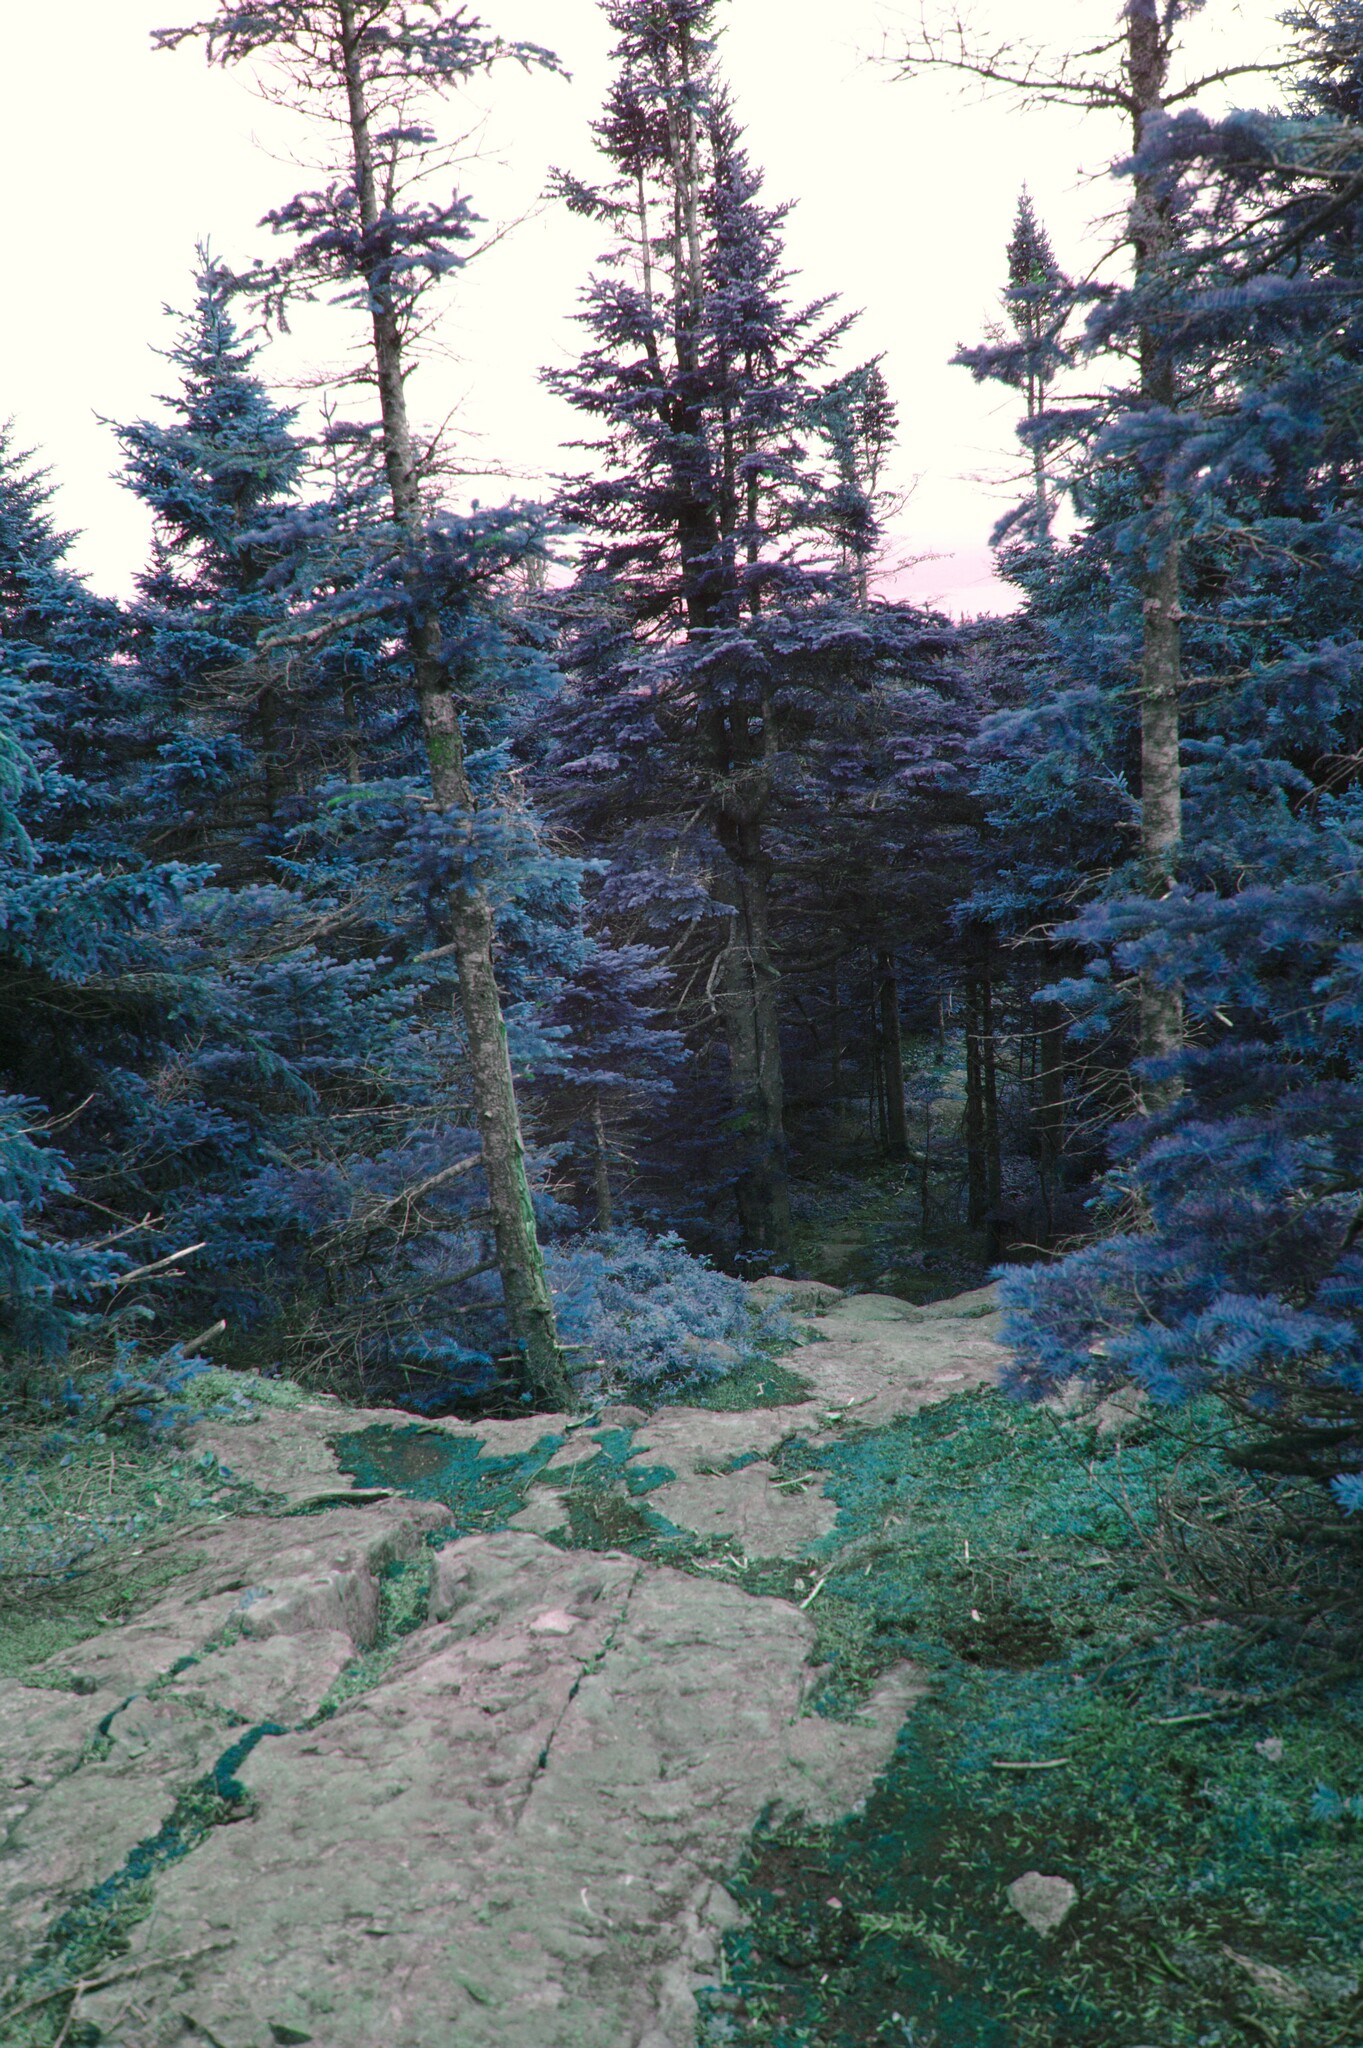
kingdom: Plantae
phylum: Tracheophyta
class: Pinopsida
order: Pinales
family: Pinaceae
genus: Abies
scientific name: Abies balsamea
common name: Balsam fir
